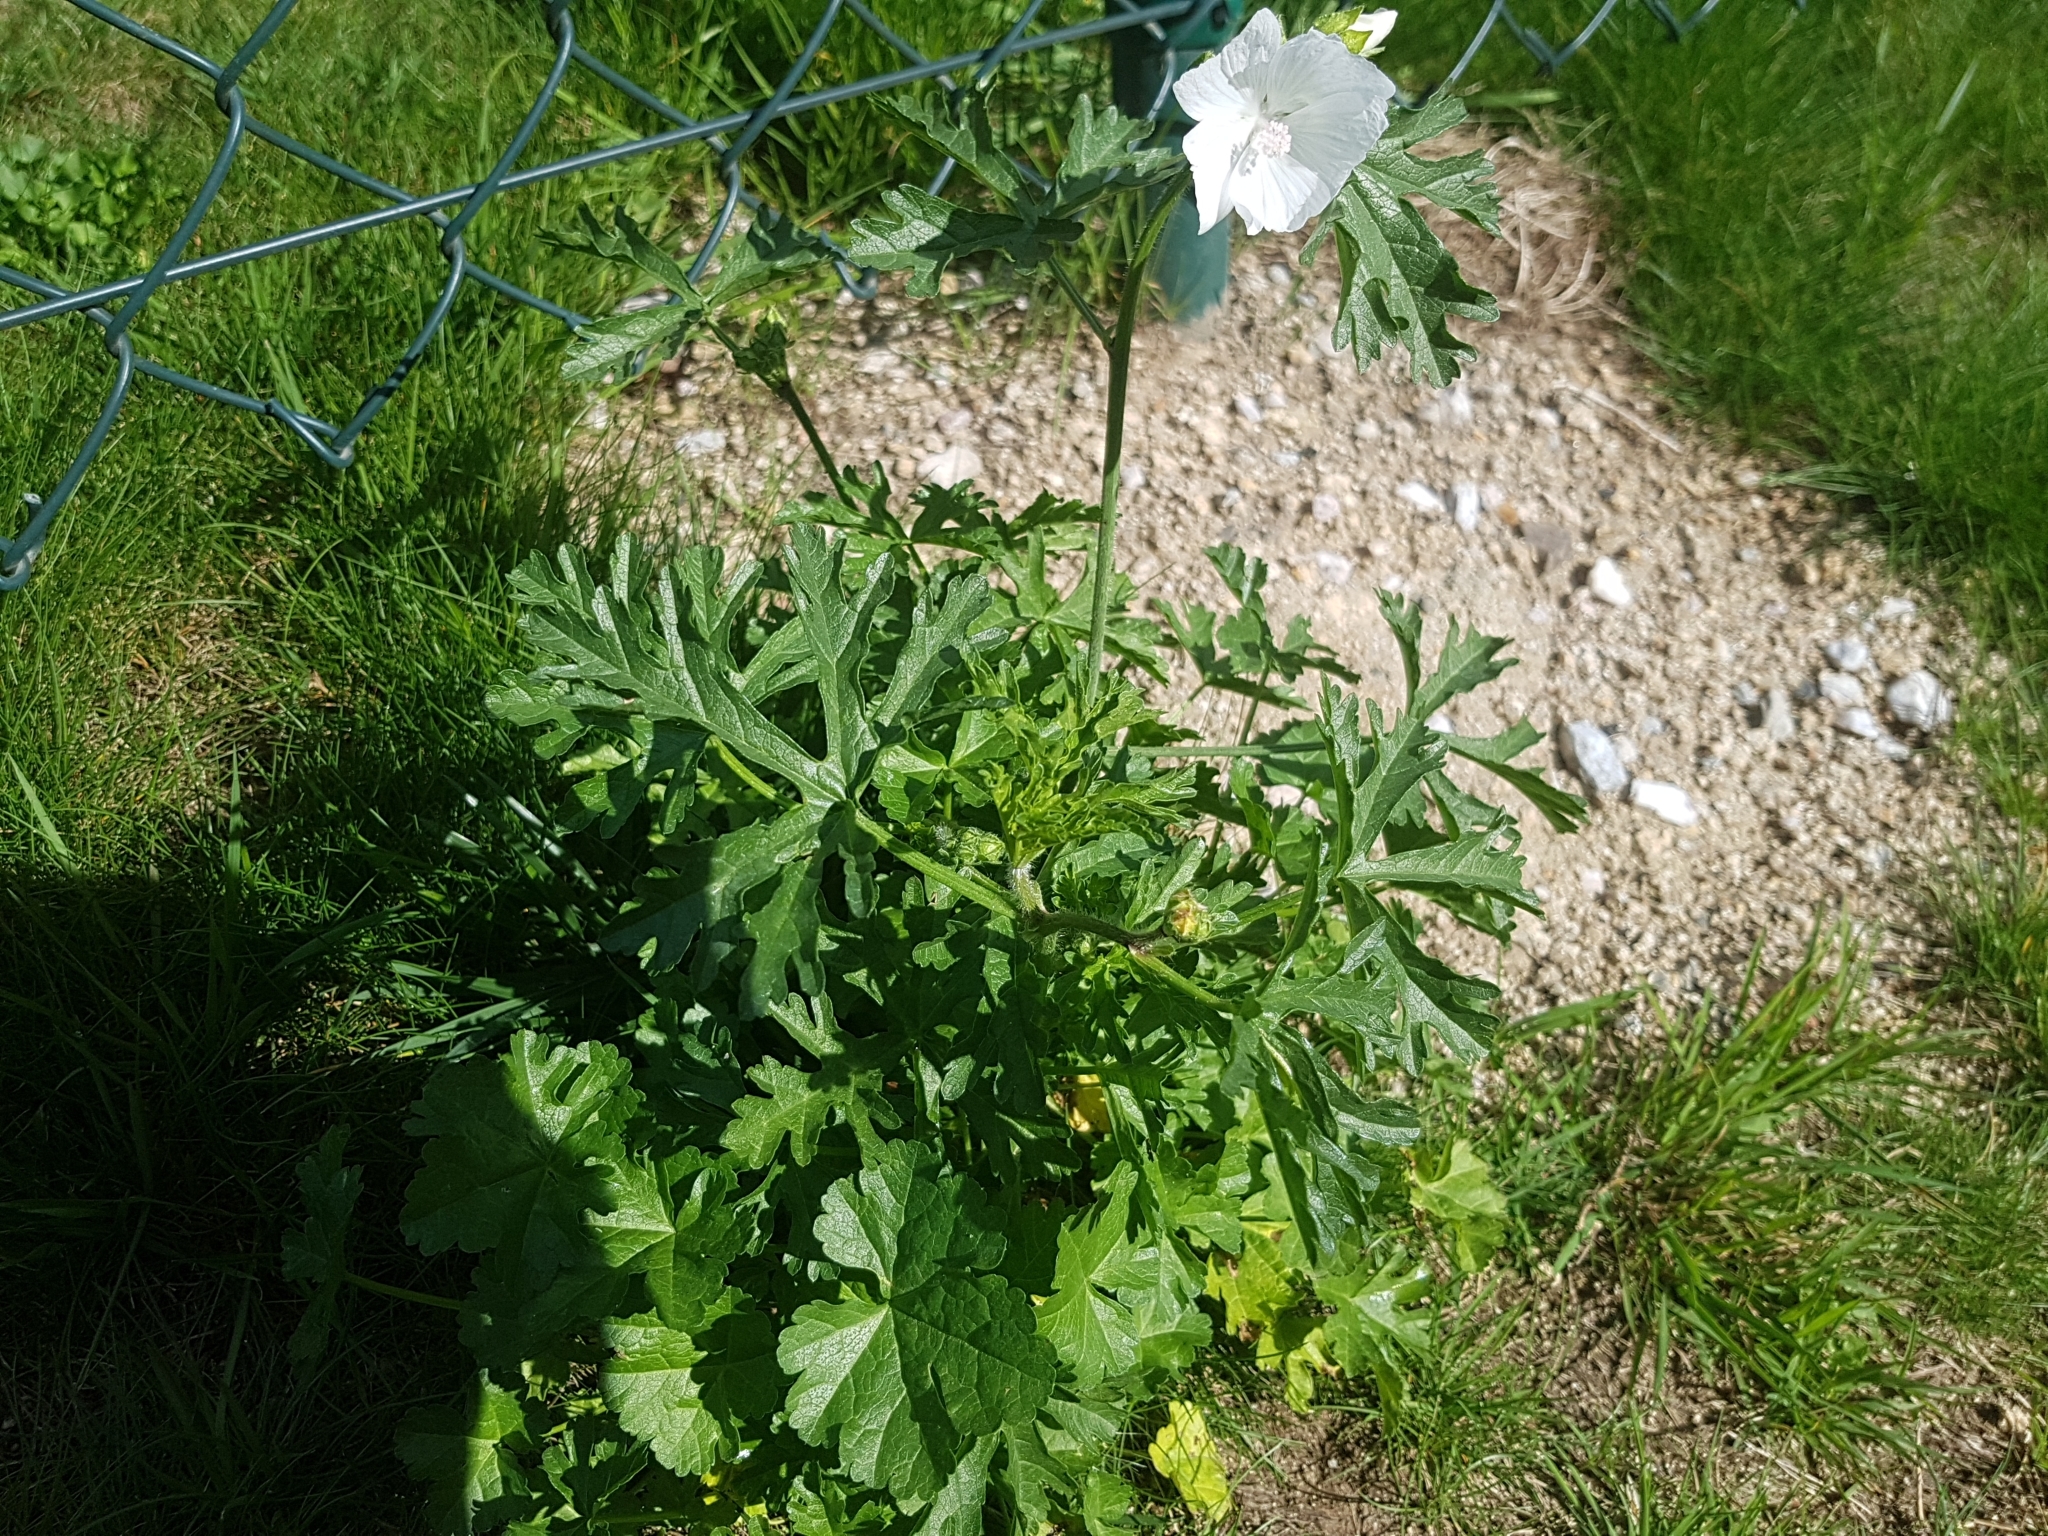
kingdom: Plantae
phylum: Tracheophyta
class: Magnoliopsida
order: Malvales
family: Malvaceae
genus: Malva
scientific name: Malva moschata
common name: Musk mallow
